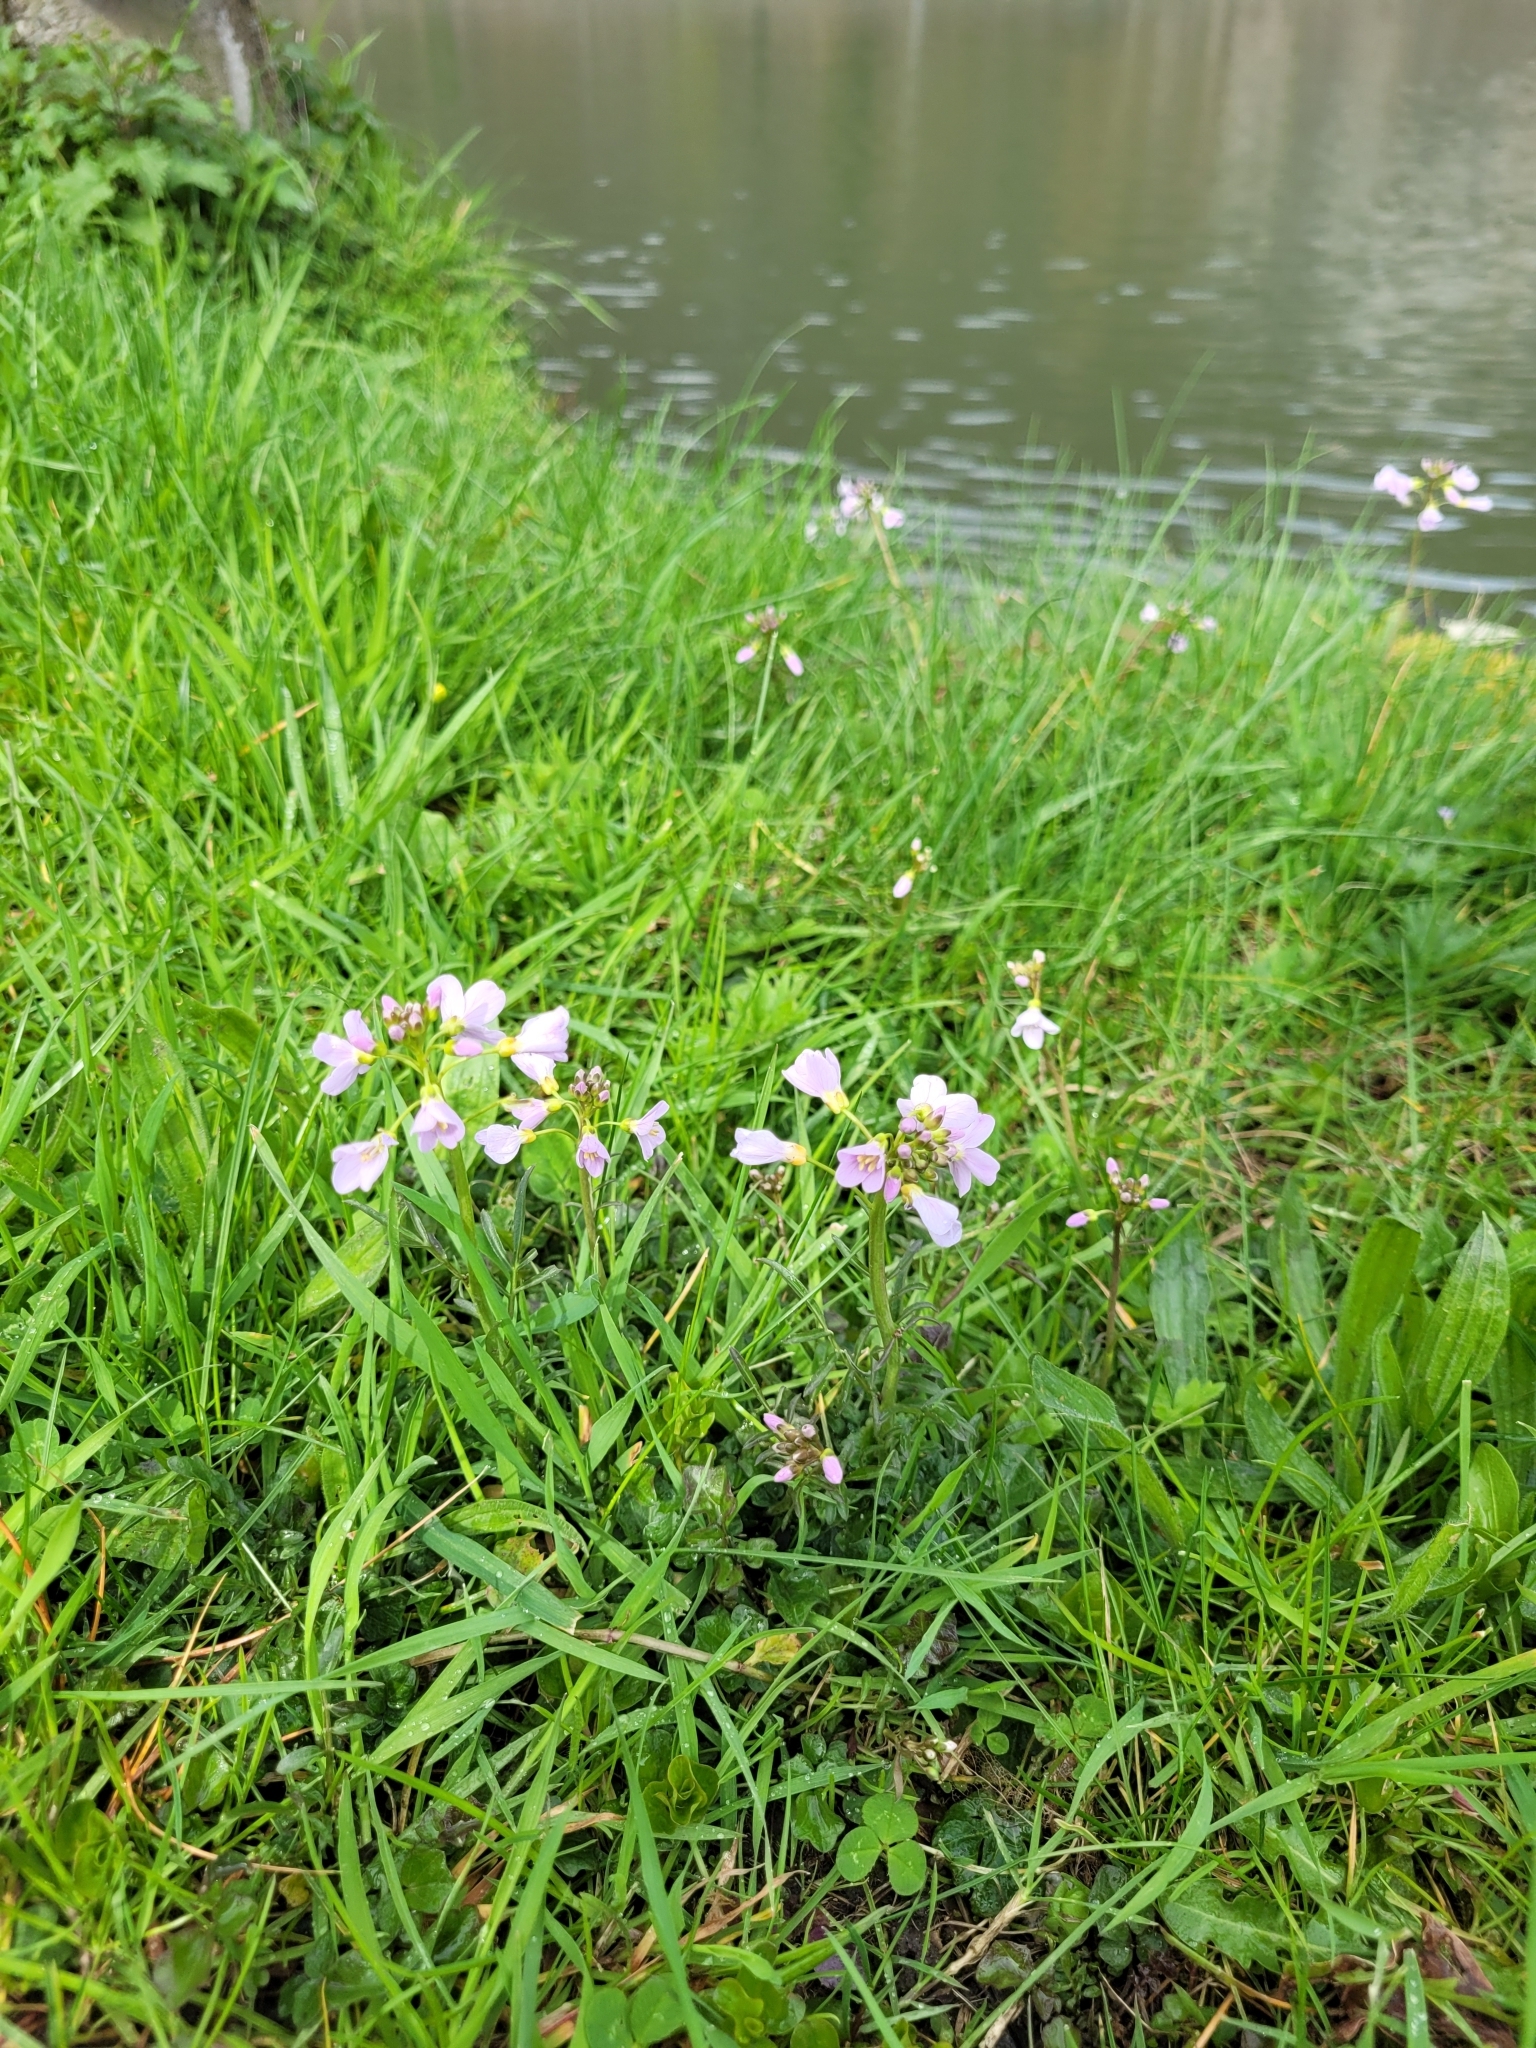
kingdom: Plantae
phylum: Tracheophyta
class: Magnoliopsida
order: Brassicales
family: Brassicaceae
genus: Cardamine
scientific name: Cardamine pratensis
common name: Cuckoo flower
